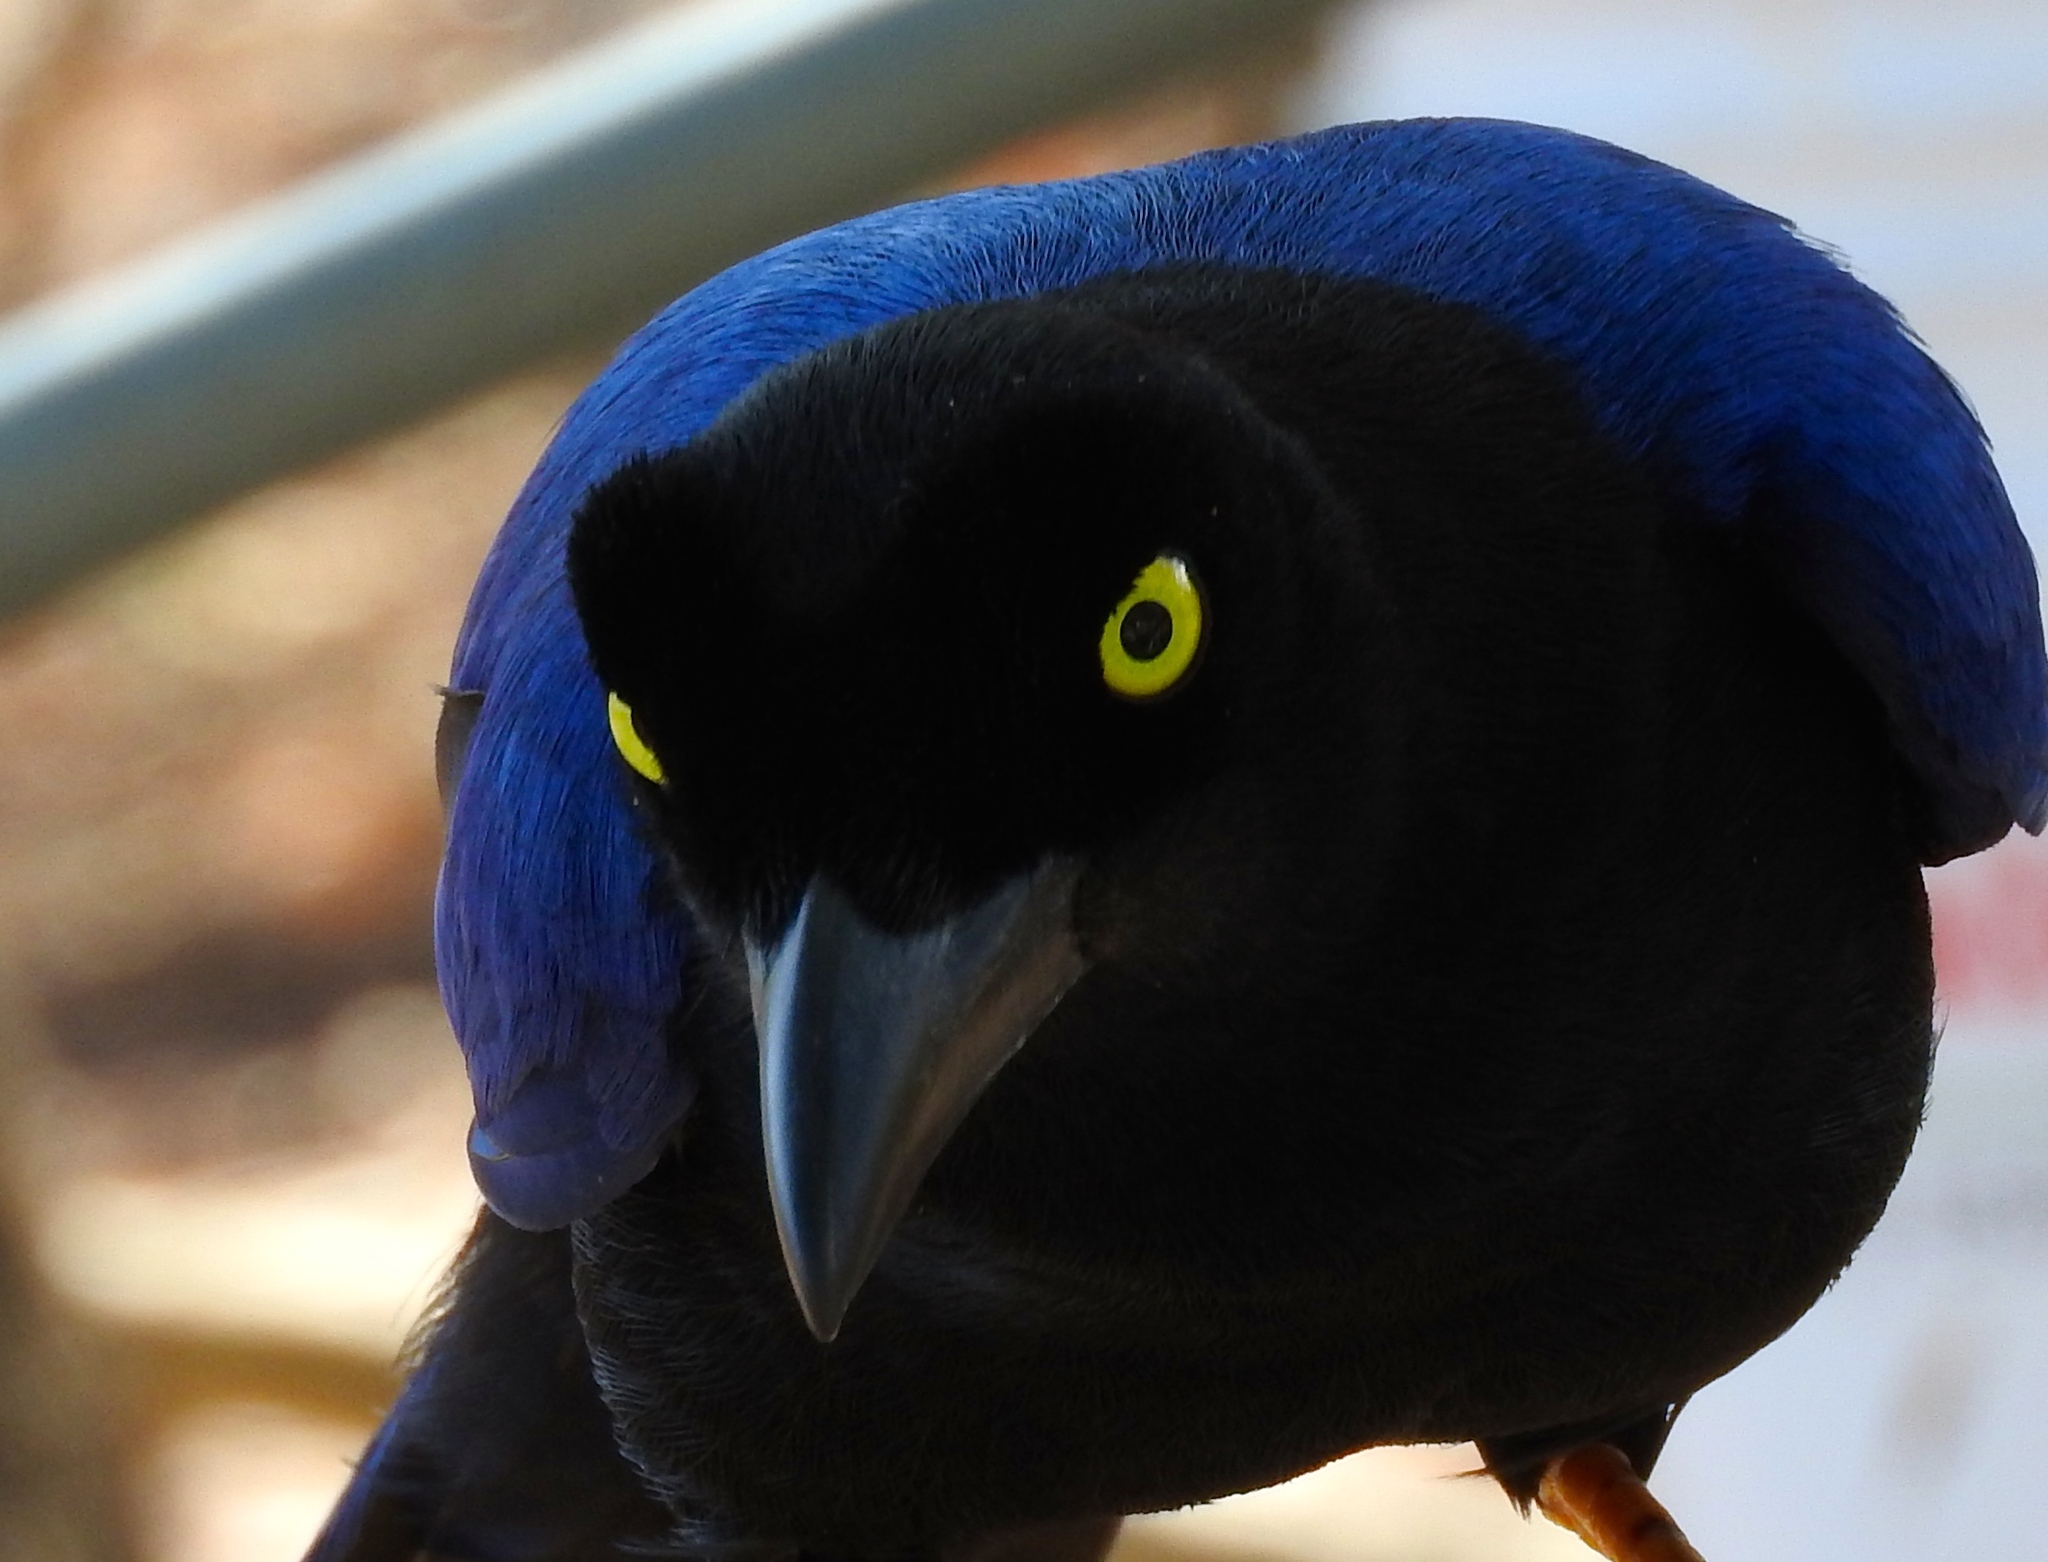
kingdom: Animalia
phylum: Chordata
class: Aves
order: Passeriformes
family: Corvidae
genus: Cyanocorax
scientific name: Cyanocorax beecheii
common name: Purplish-backed jay
